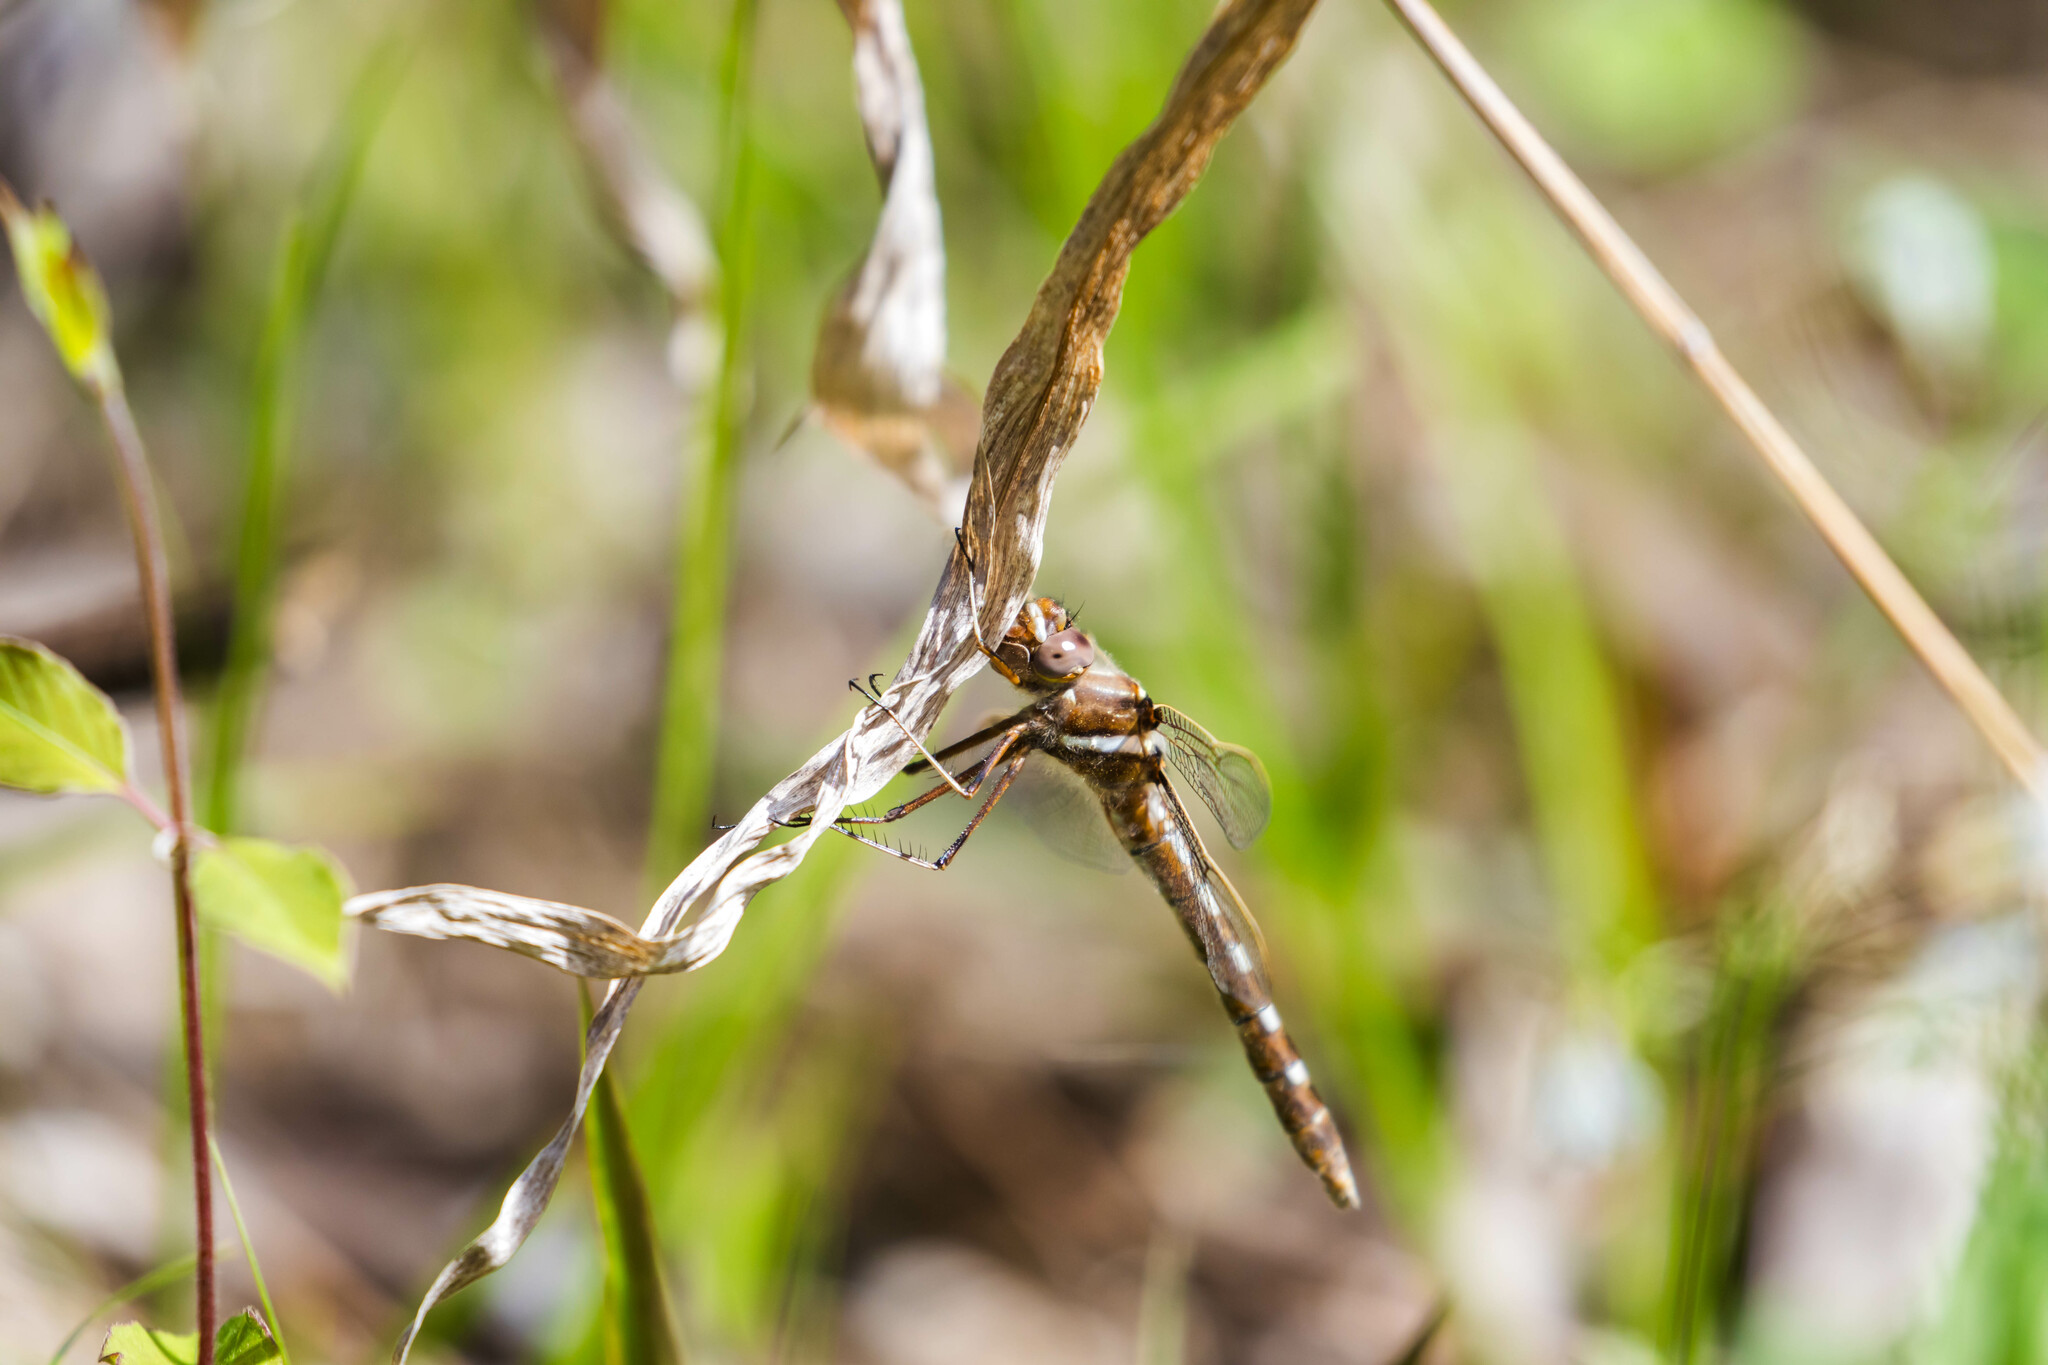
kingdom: Animalia
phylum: Arthropoda
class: Insecta
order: Odonata
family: Macromiidae
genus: Didymops
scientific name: Didymops transversa
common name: Stream cruiser
